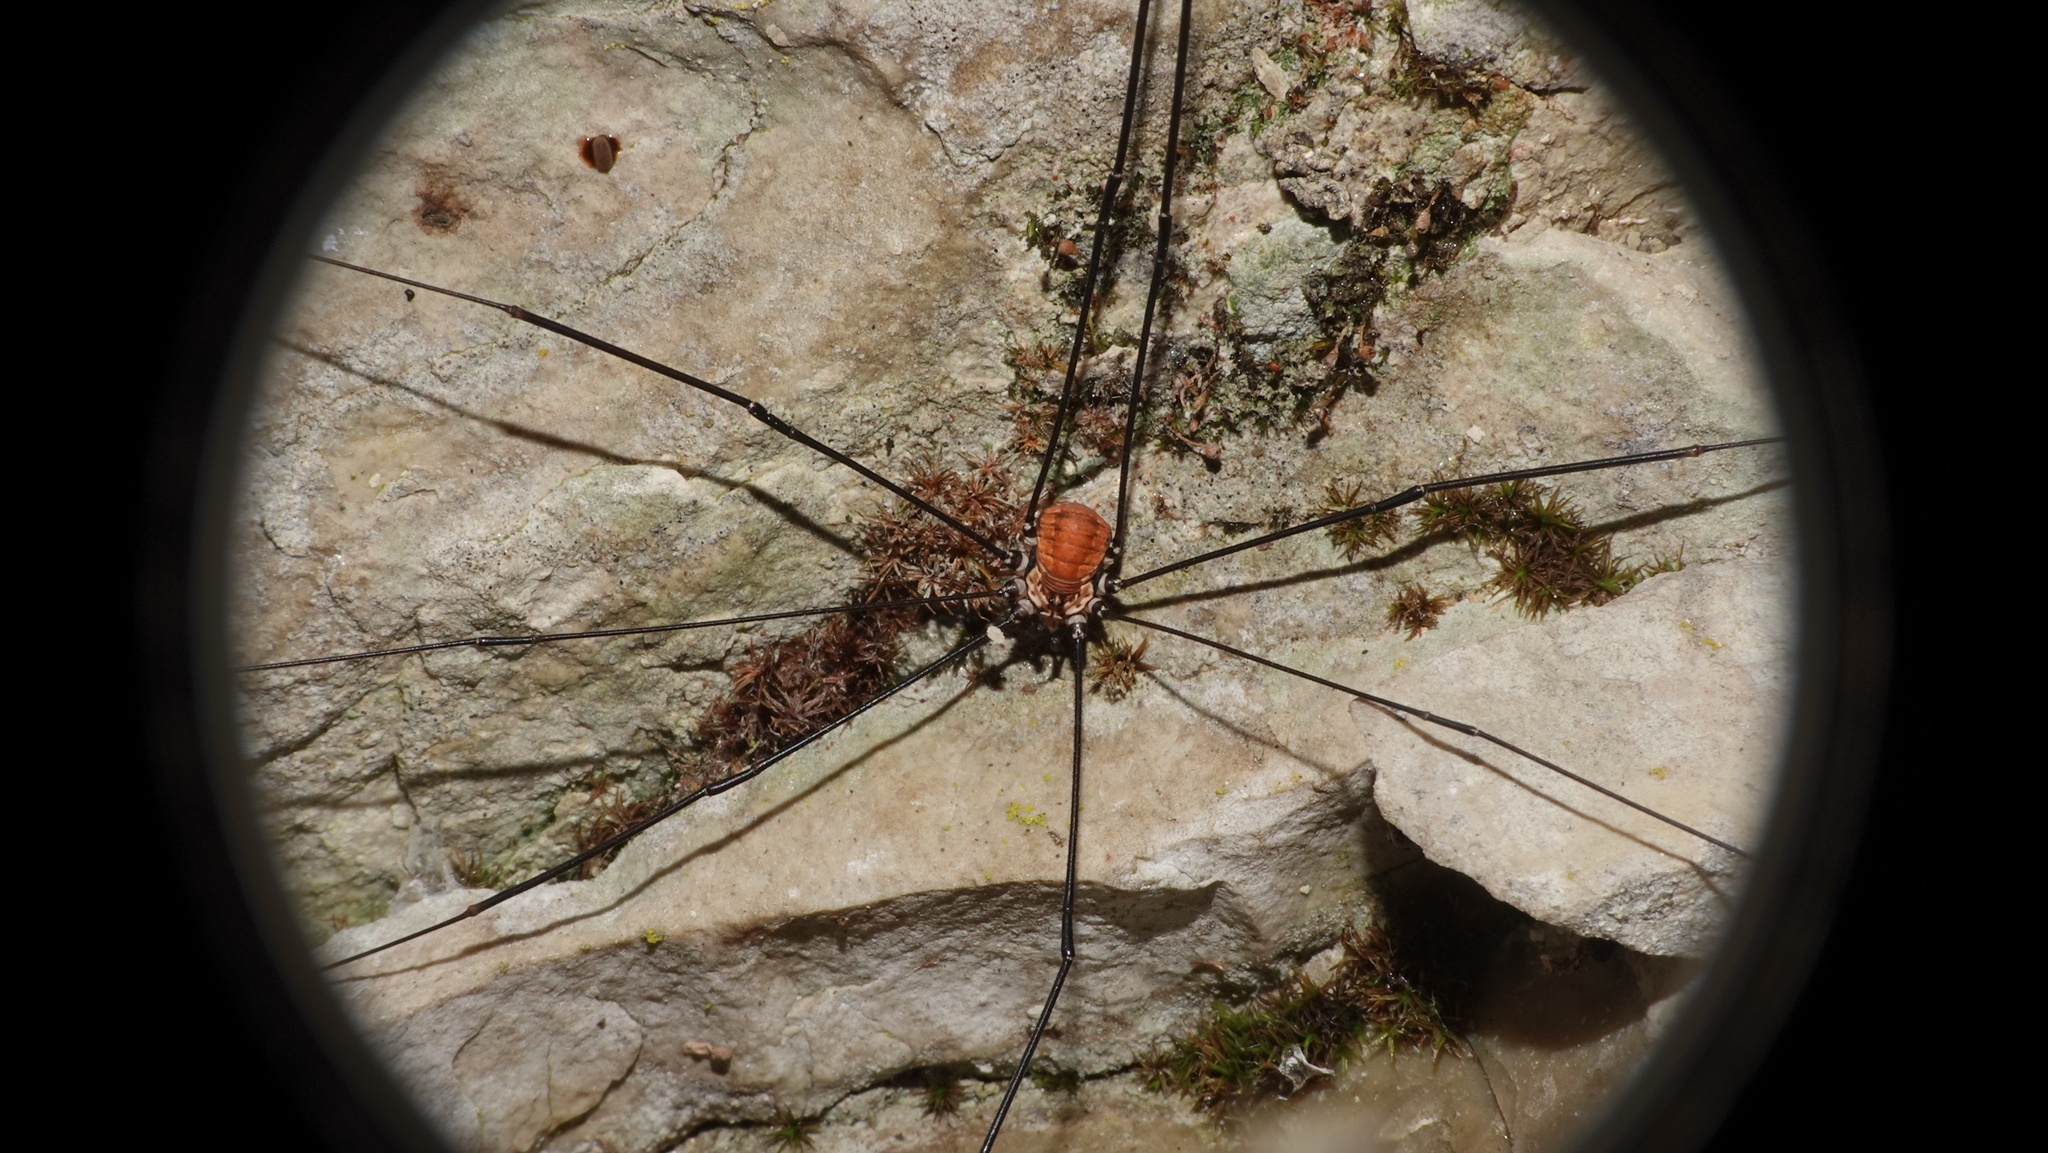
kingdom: Animalia
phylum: Arthropoda
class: Arachnida
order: Opiliones
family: Sclerosomatidae
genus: Leiobunum
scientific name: Leiobunum limbatum
